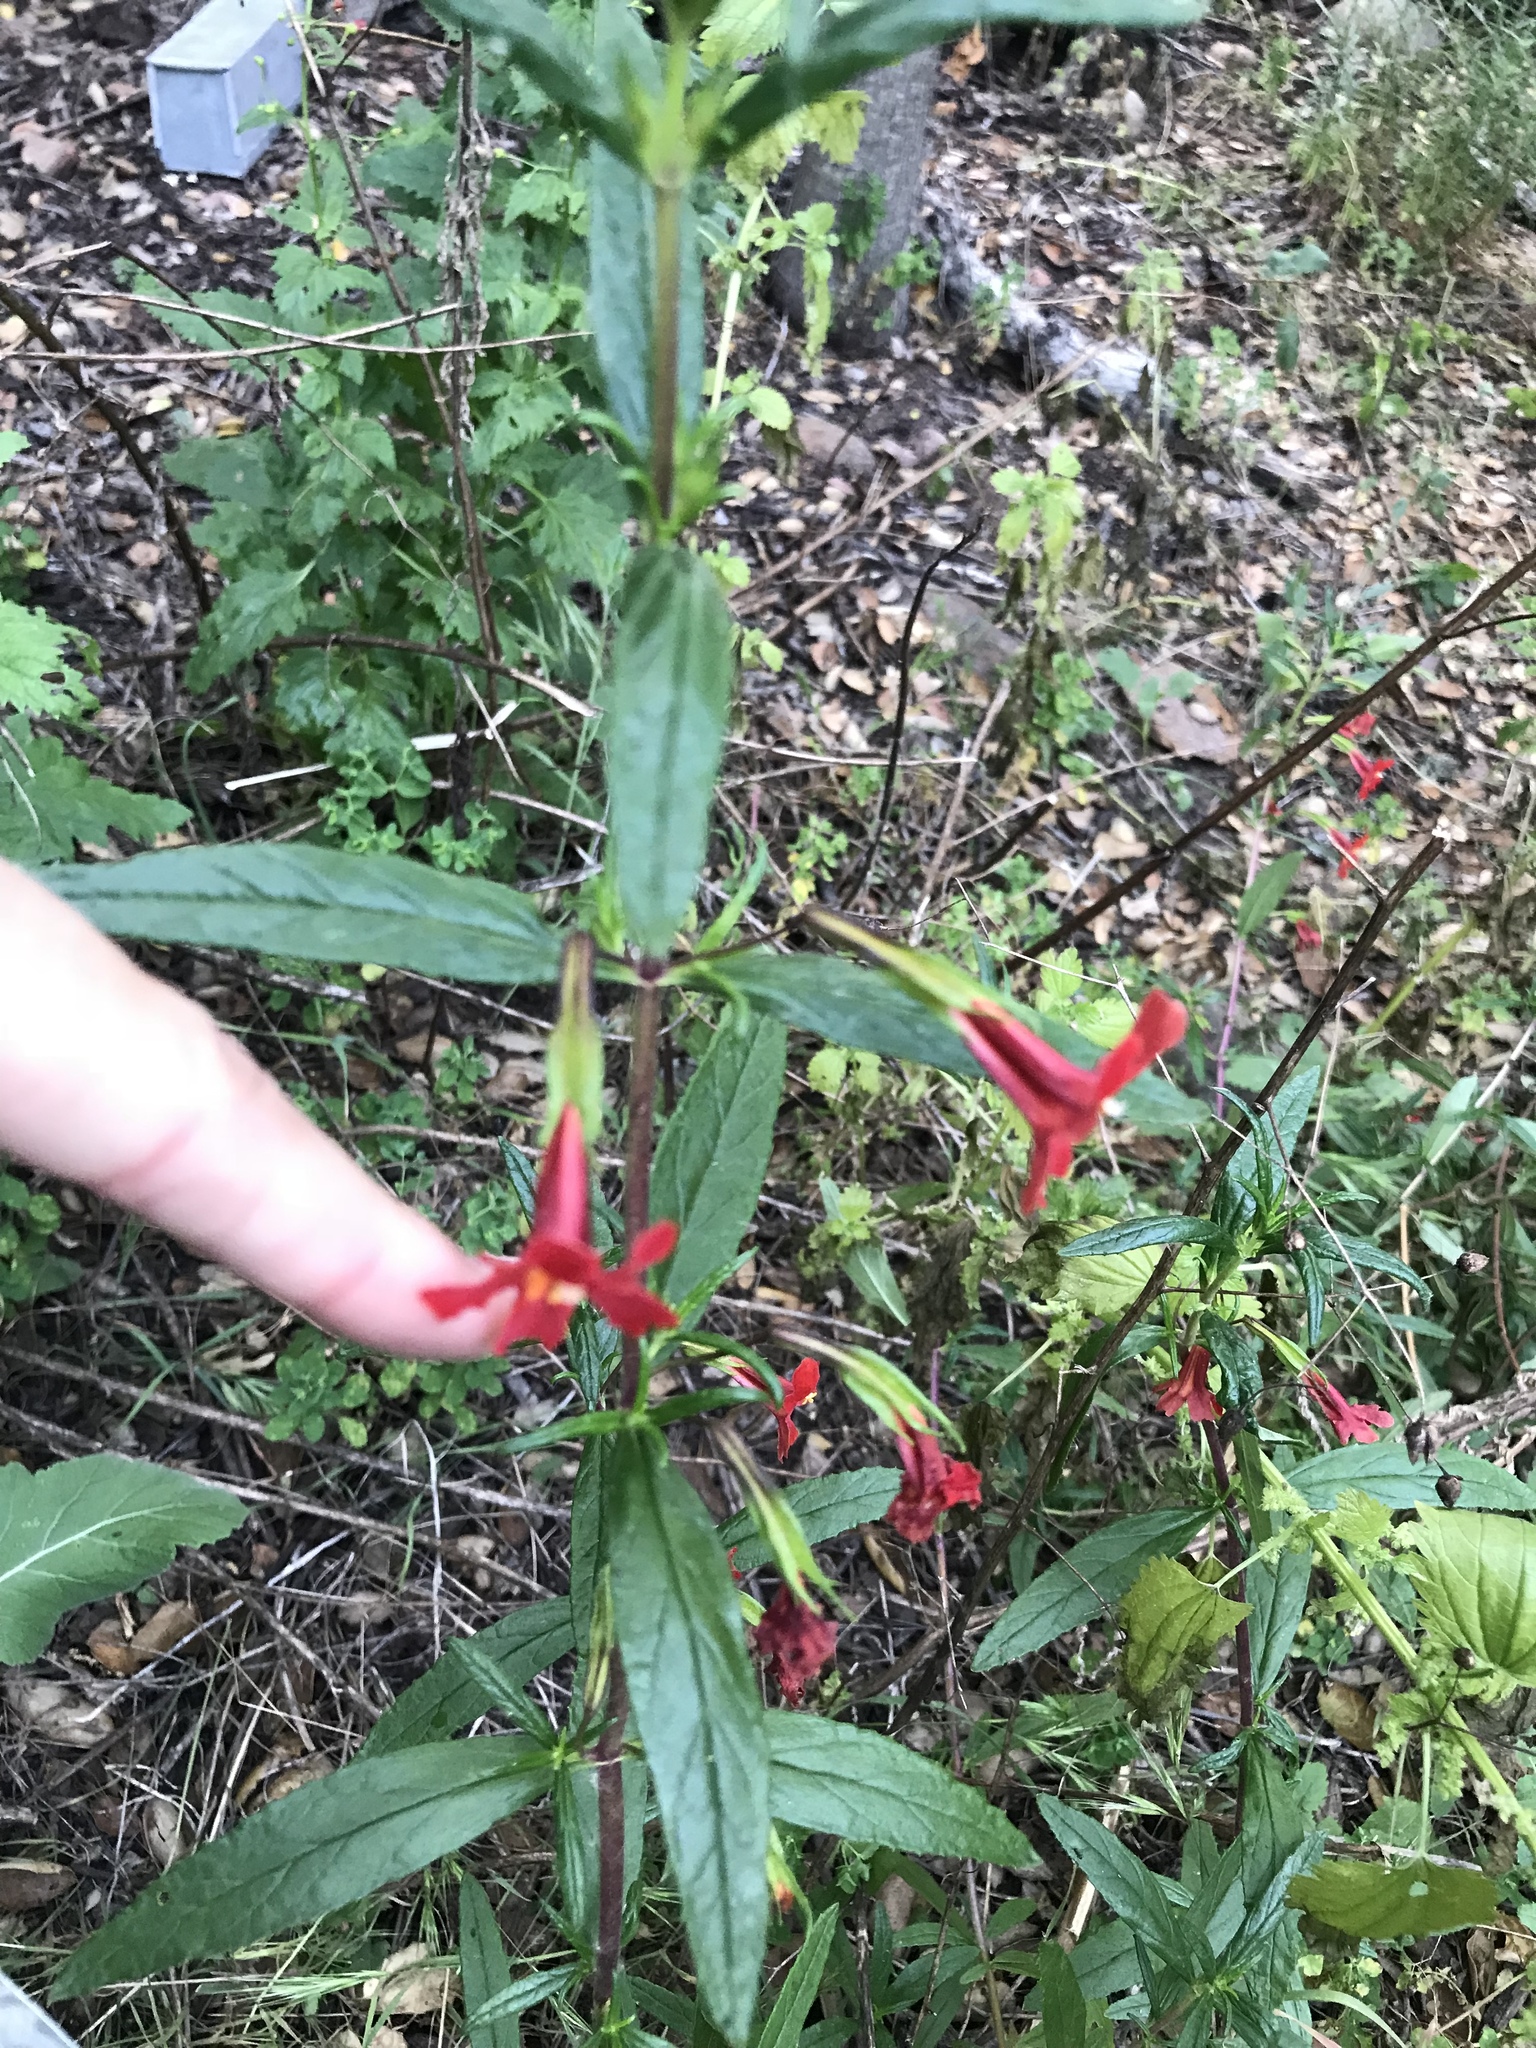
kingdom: Plantae
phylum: Tracheophyta
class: Magnoliopsida
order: Lamiales
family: Phrymaceae
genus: Diplacus
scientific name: Diplacus puniceus
